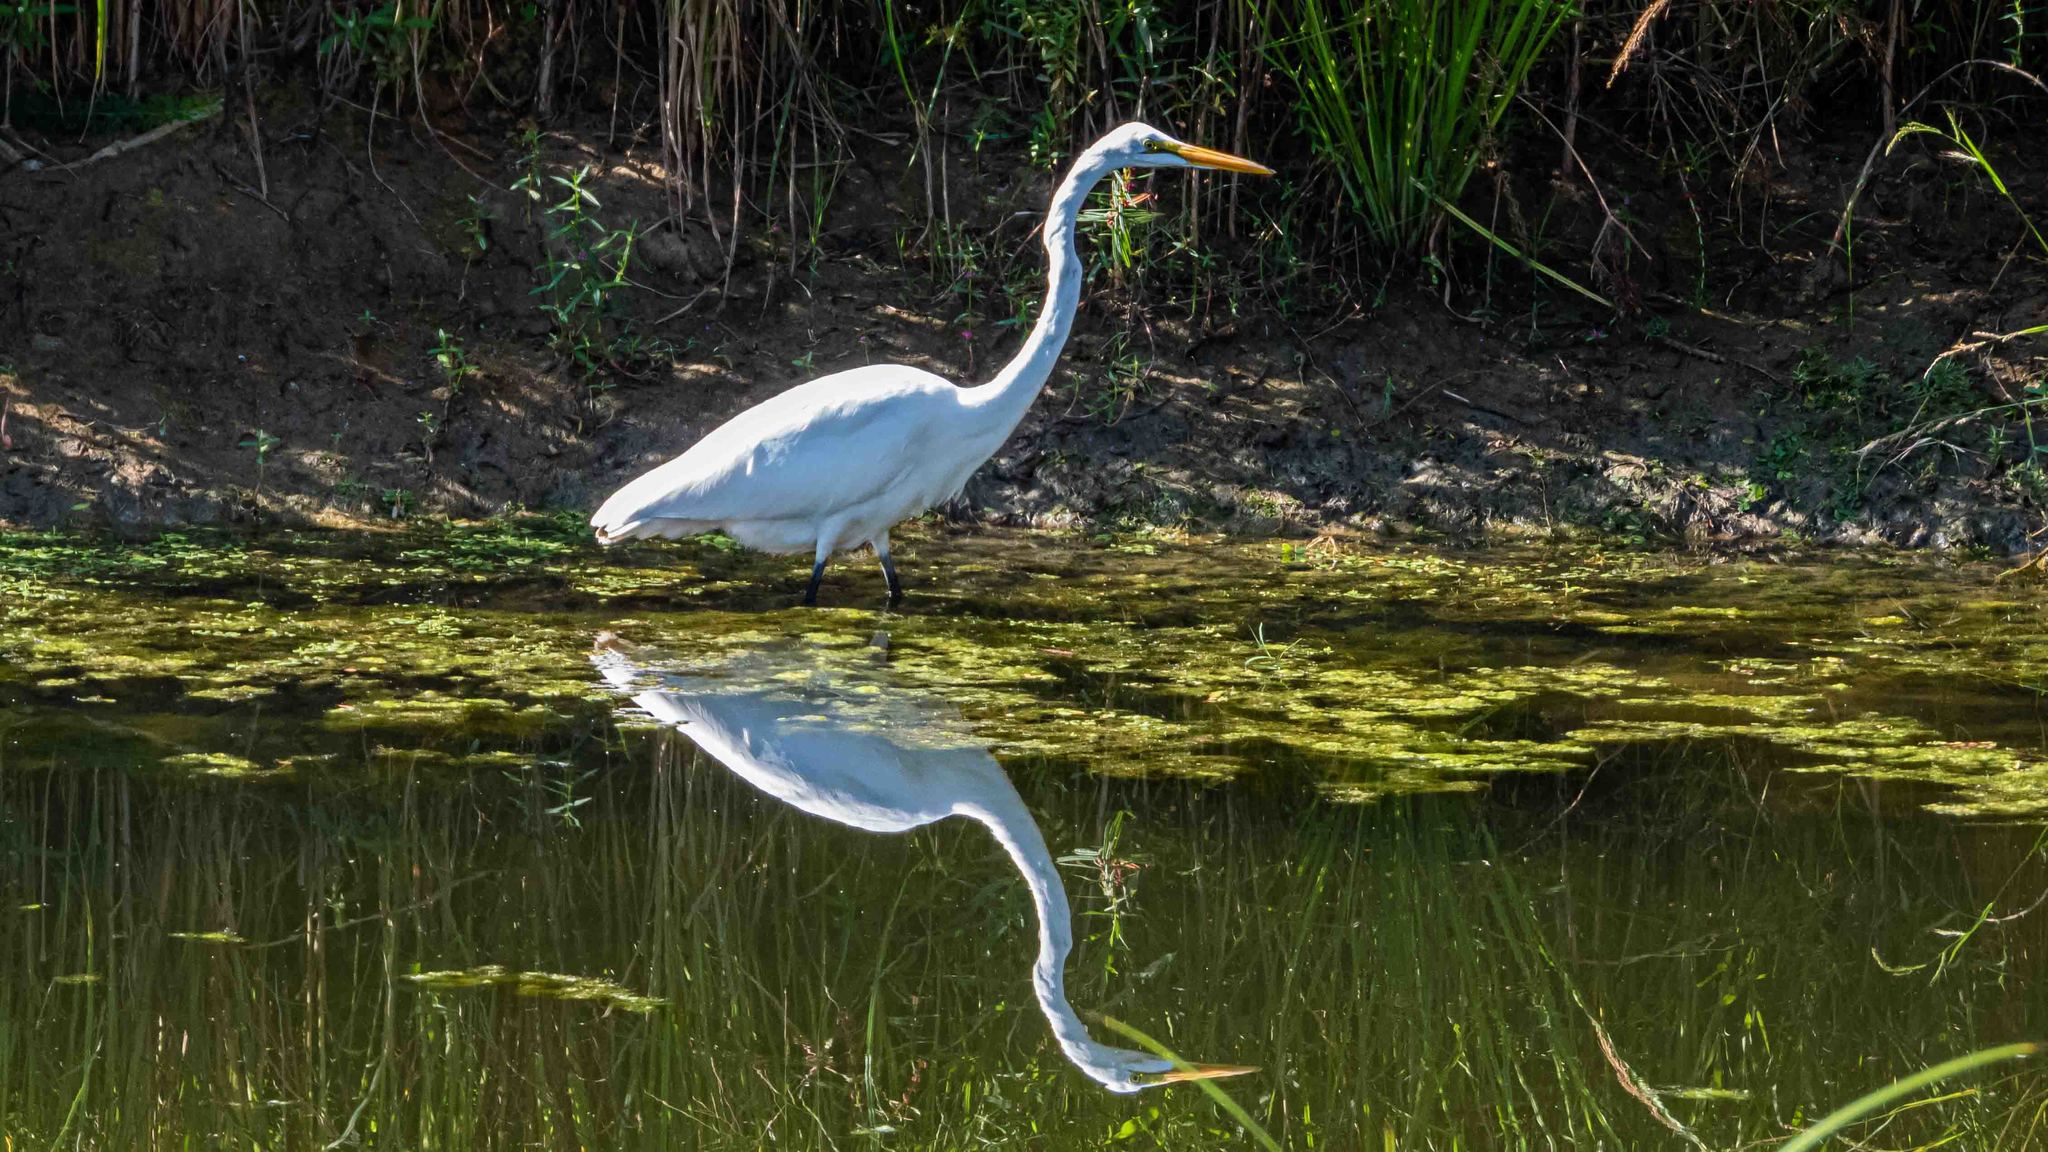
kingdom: Animalia
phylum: Chordata
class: Aves
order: Pelecaniformes
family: Ardeidae
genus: Ardea
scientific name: Ardea alba
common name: Great egret
